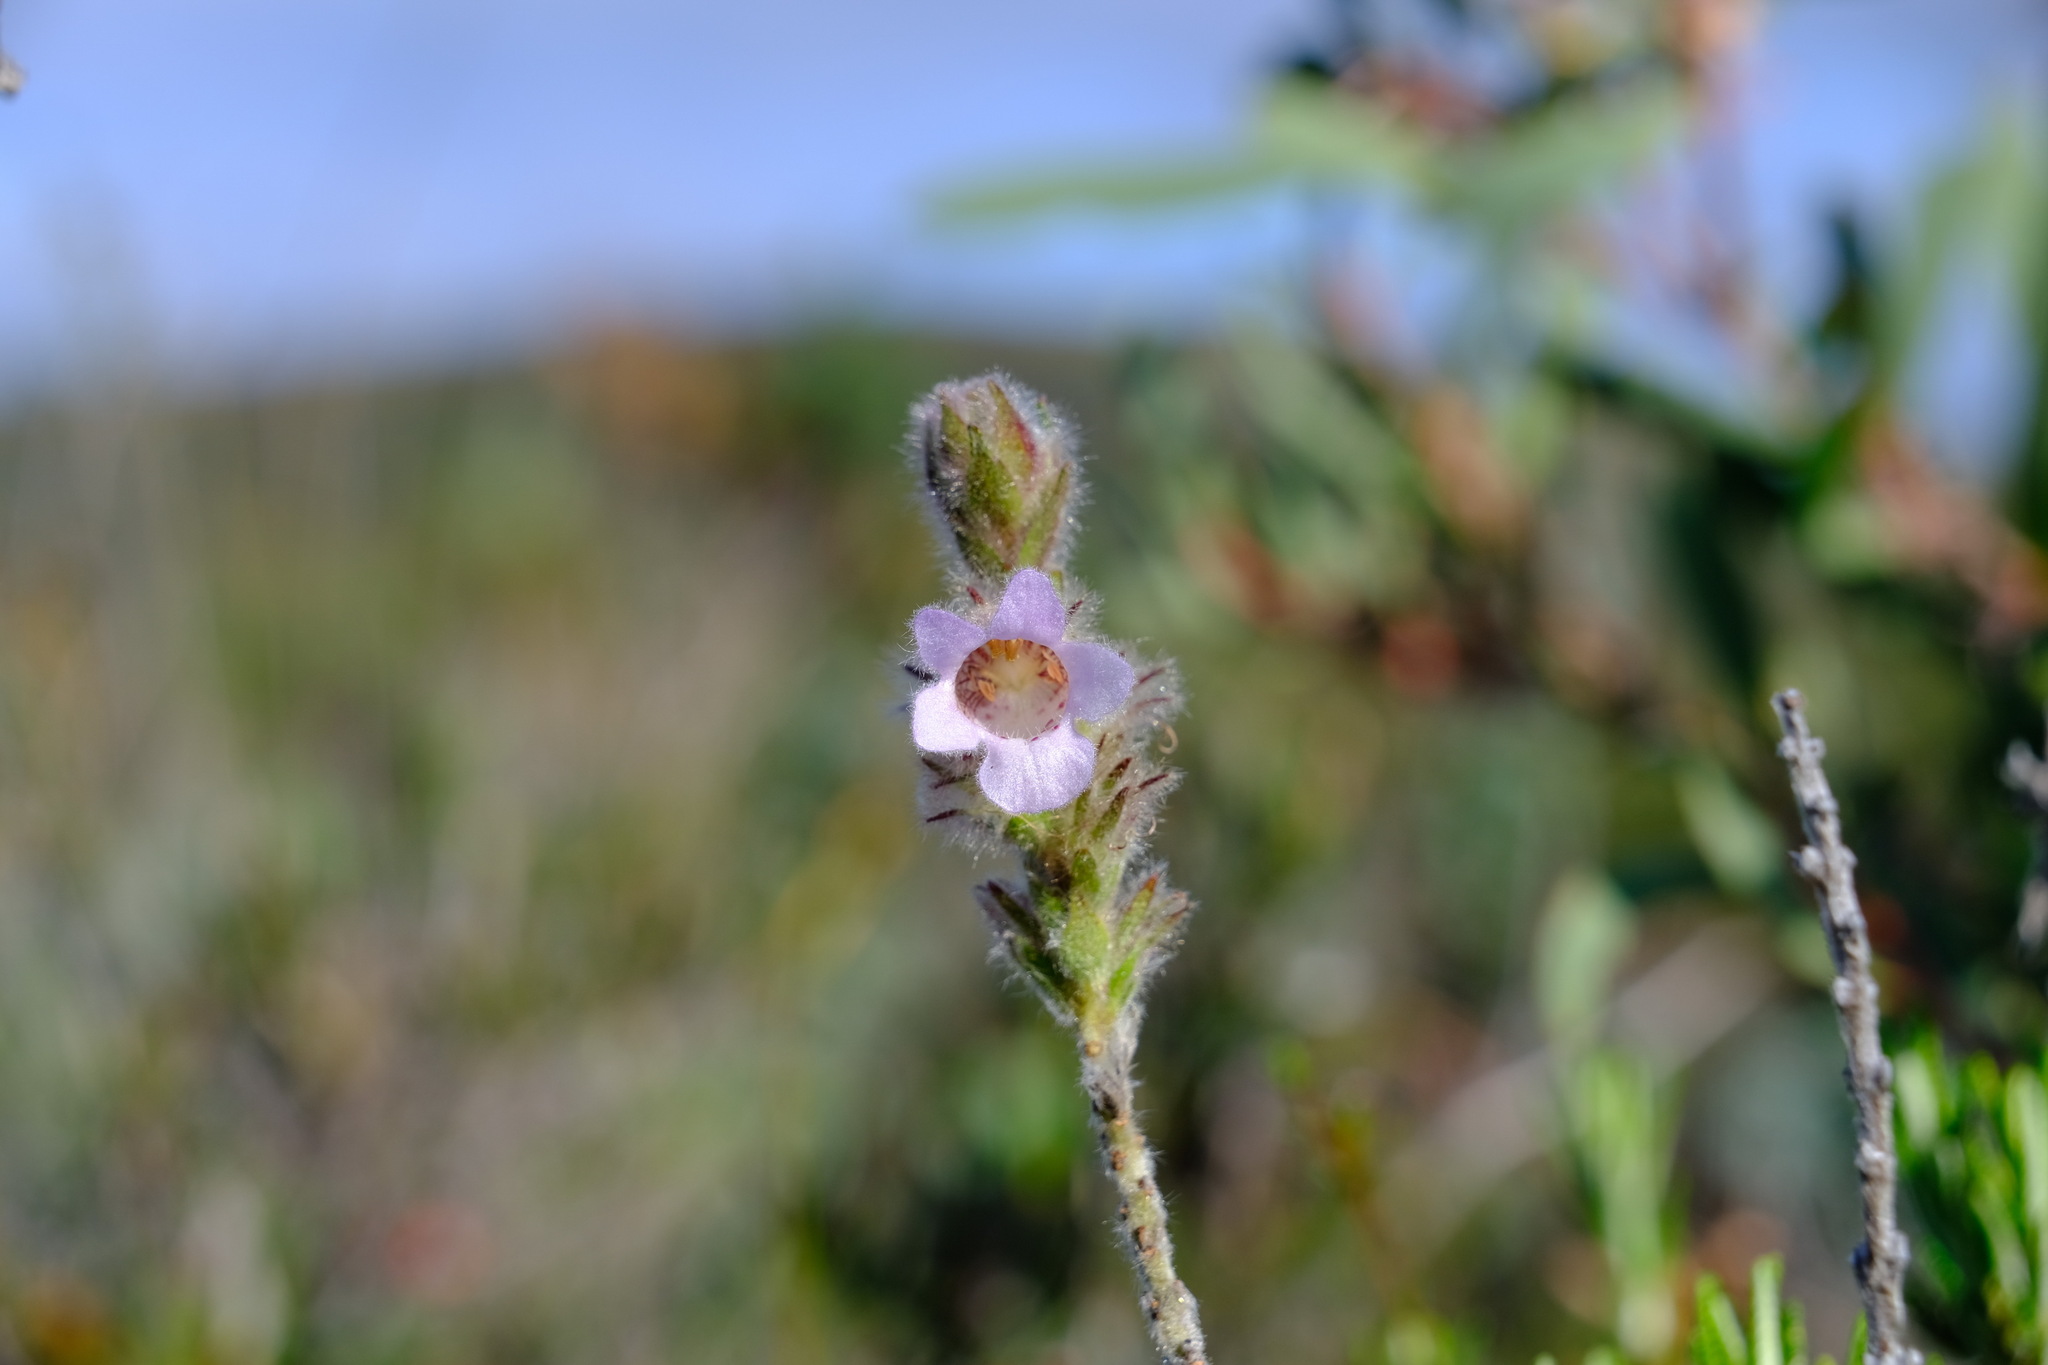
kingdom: Plantae
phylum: Tracheophyta
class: Magnoliopsida
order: Lamiales
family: Lamiaceae
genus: Hemiphora
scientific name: Hemiphora bartlingii
